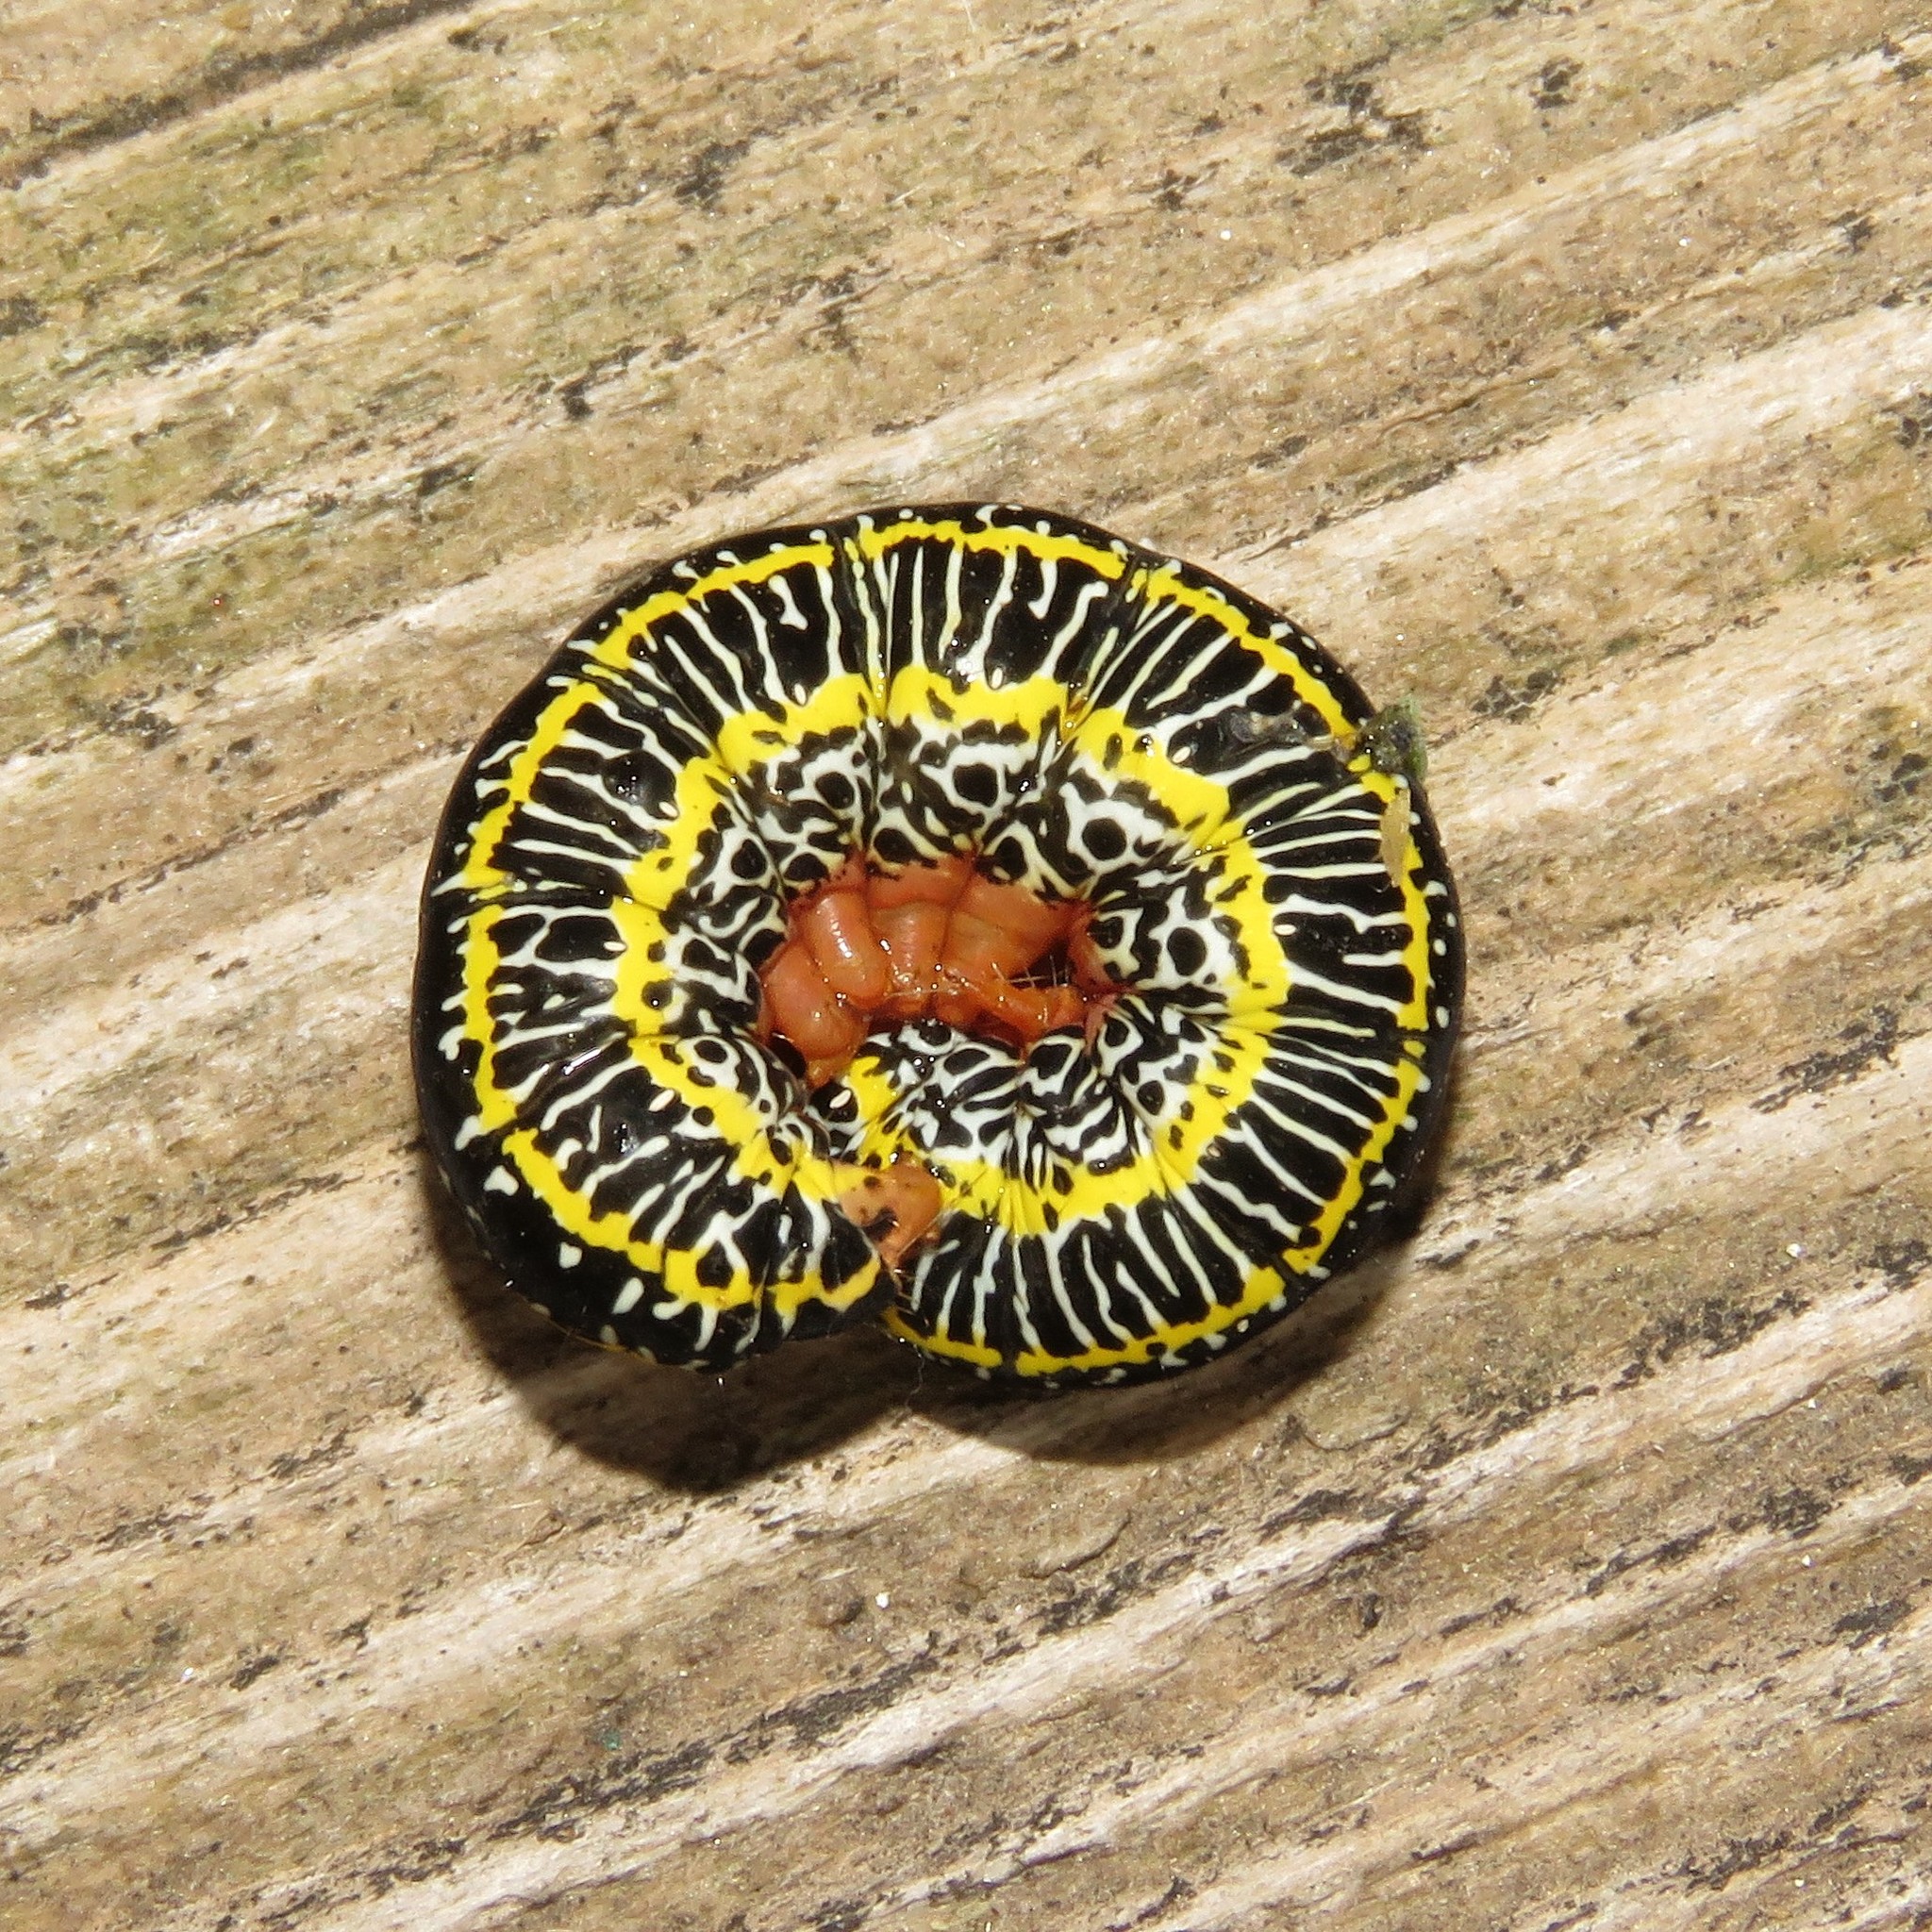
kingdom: Animalia
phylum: Arthropoda
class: Insecta
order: Lepidoptera
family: Noctuidae
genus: Melanchra
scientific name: Melanchra picta
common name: Zebra caterpillar
